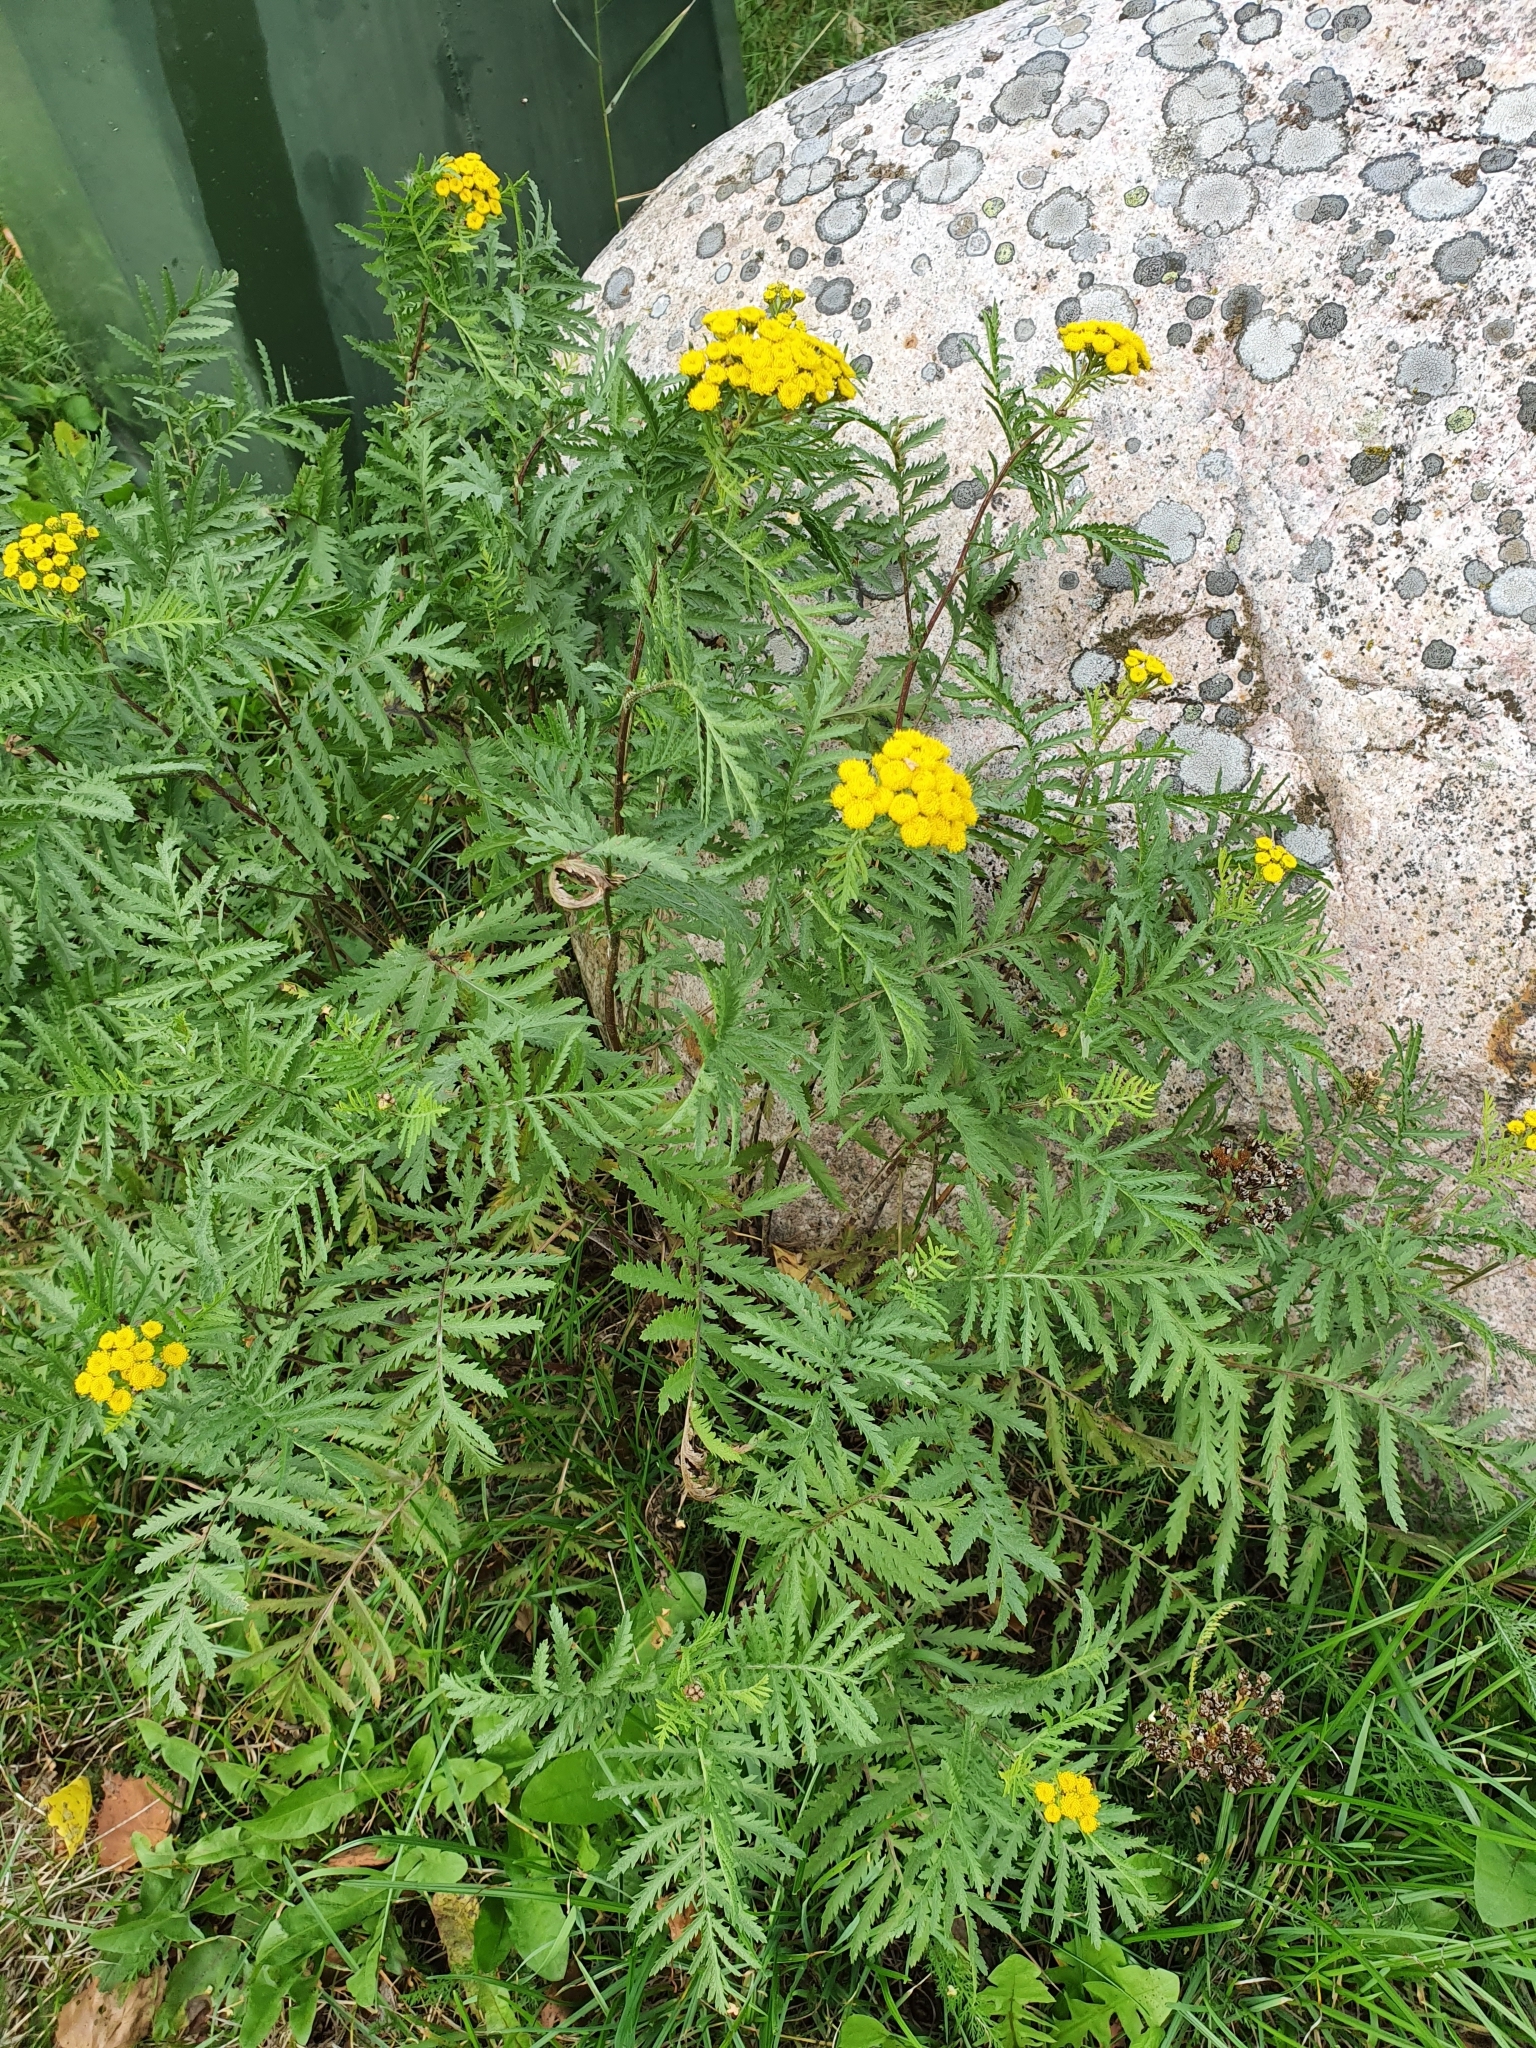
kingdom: Plantae
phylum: Tracheophyta
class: Magnoliopsida
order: Asterales
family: Asteraceae
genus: Tanacetum
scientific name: Tanacetum vulgare
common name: Common tansy
